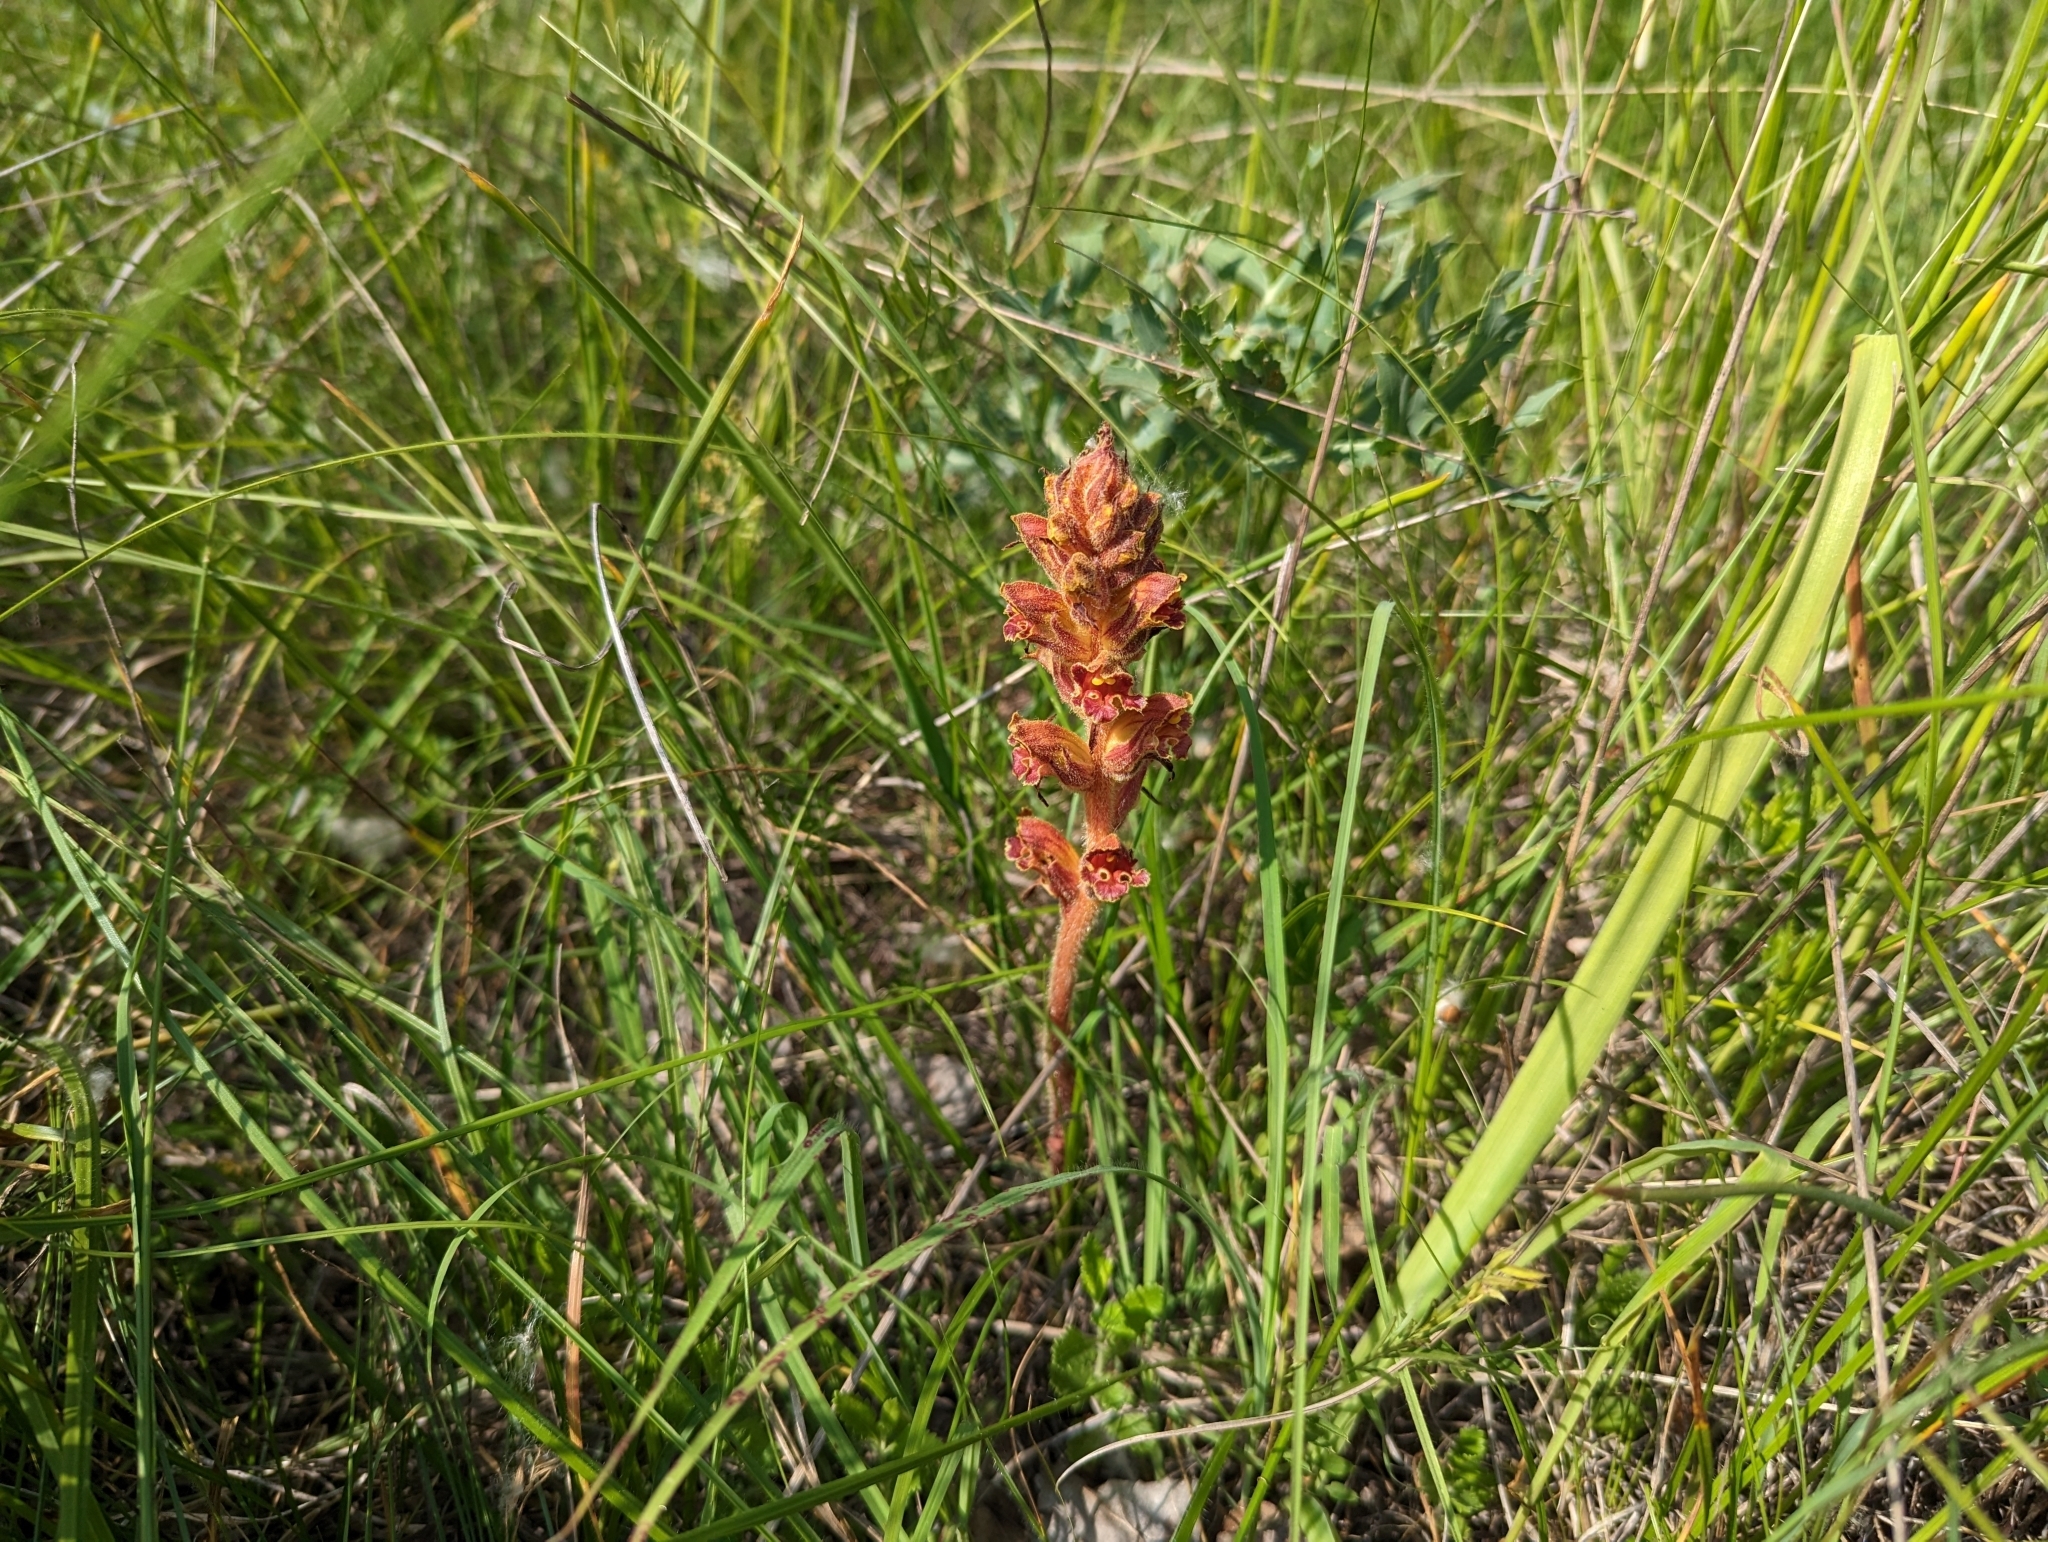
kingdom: Plantae
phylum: Tracheophyta
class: Magnoliopsida
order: Lamiales
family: Orobanchaceae
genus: Orobanche
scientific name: Orobanche gracilis
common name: Slender broomrape
